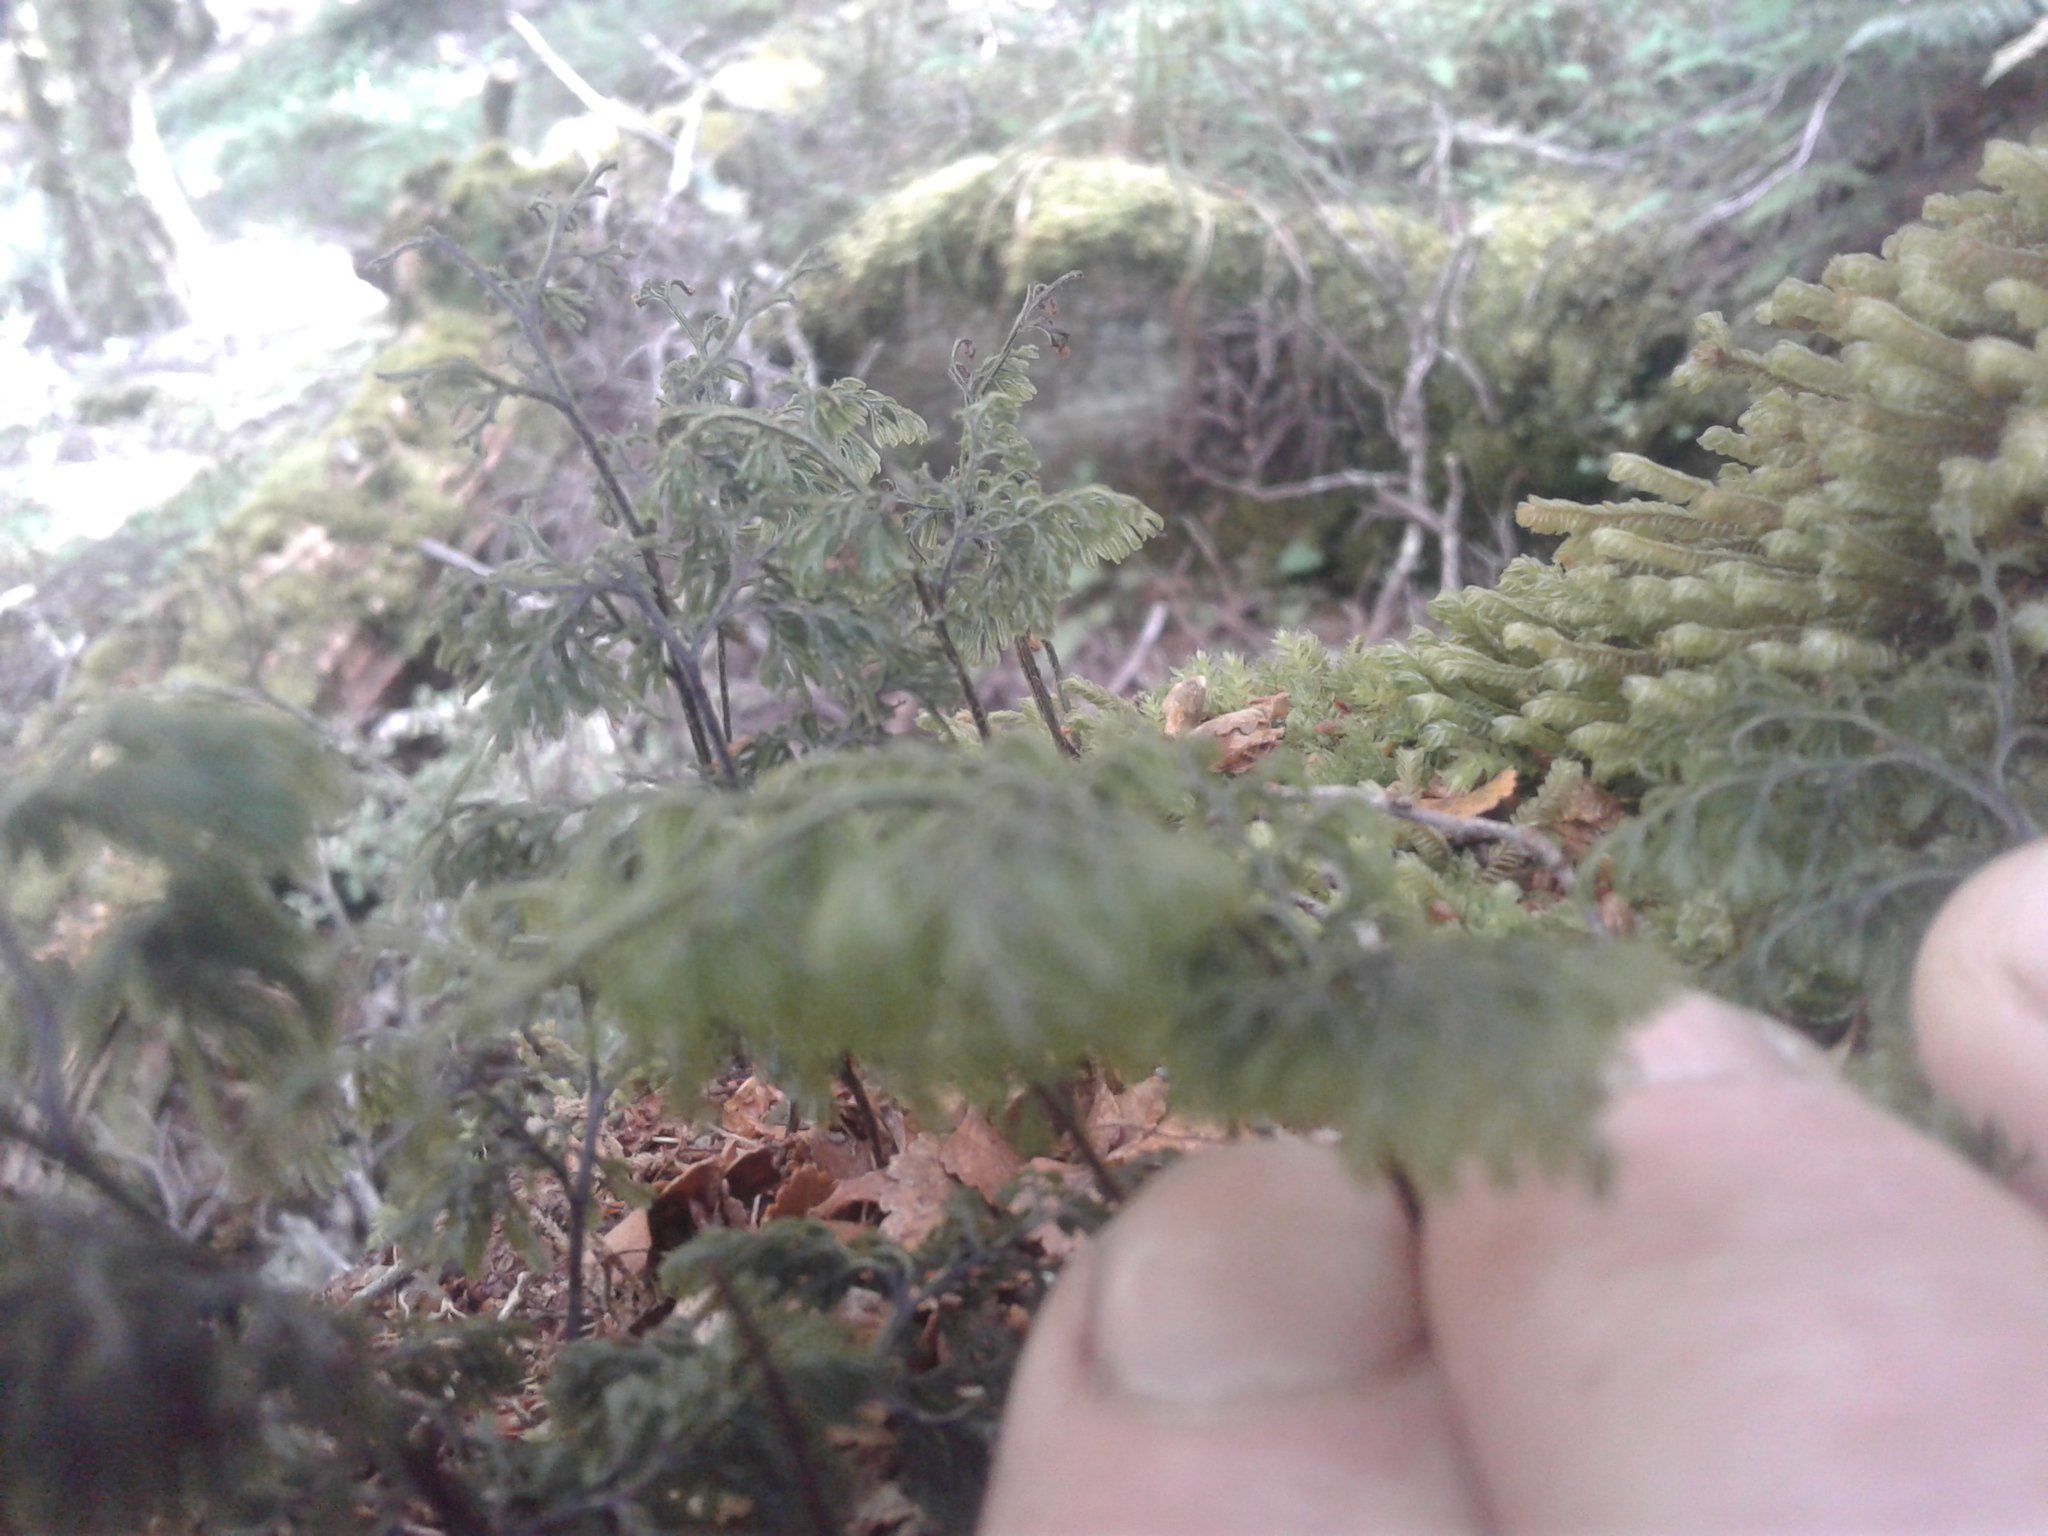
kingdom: Plantae
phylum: Tracheophyta
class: Polypodiopsida
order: Hymenophyllales
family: Hymenophyllaceae
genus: Hymenophyllum
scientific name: Hymenophyllum sanguinolentum
